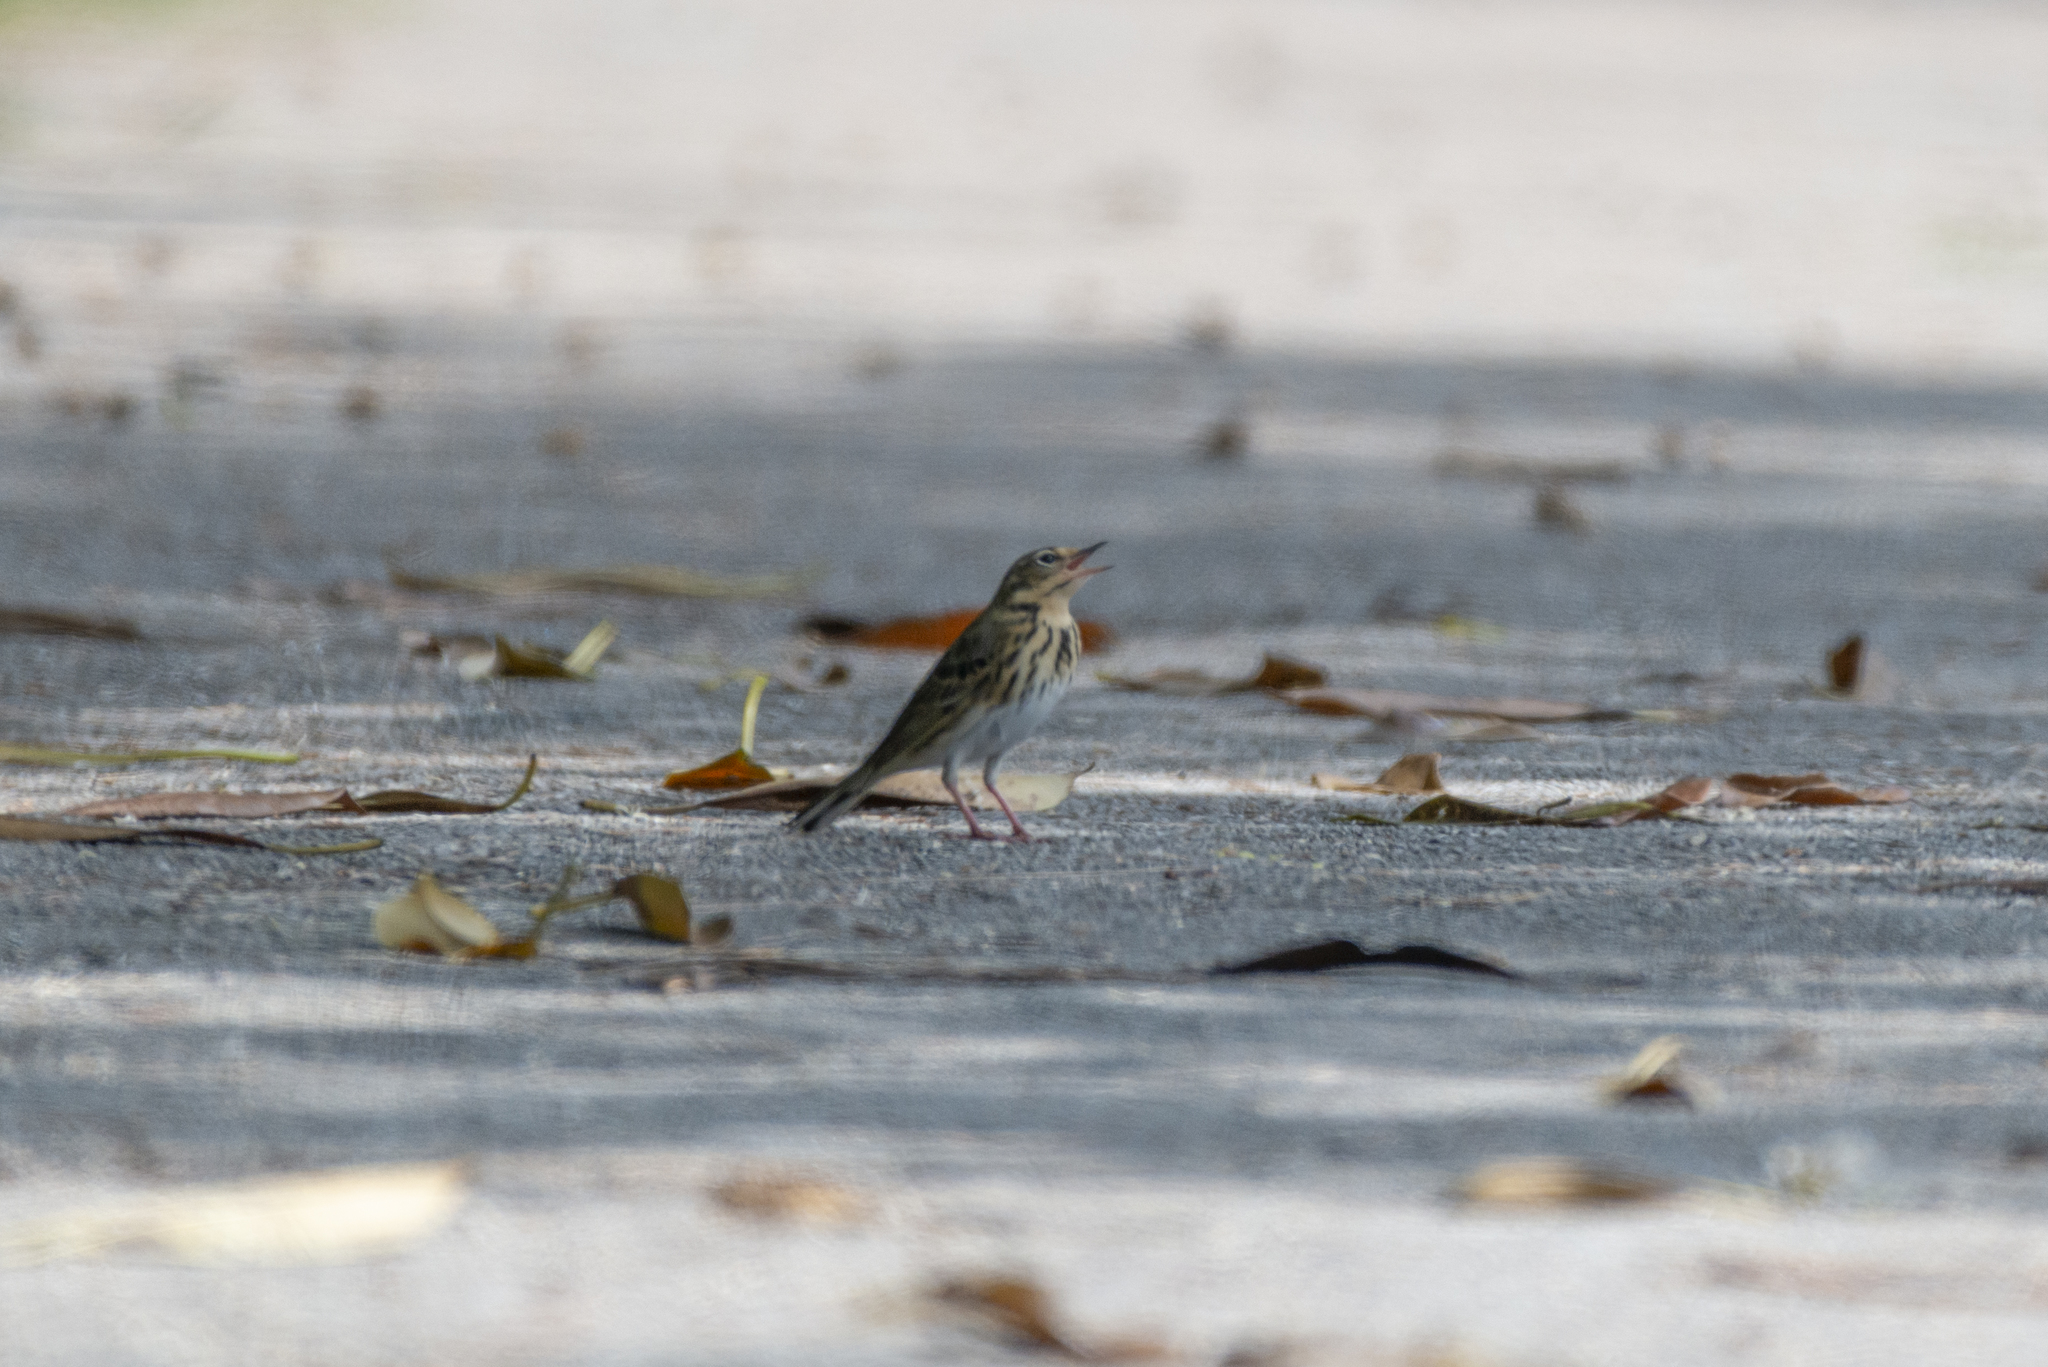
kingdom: Animalia
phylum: Chordata
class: Aves
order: Passeriformes
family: Motacillidae
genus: Anthus
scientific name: Anthus hodgsoni
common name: Olive-backed pipit
